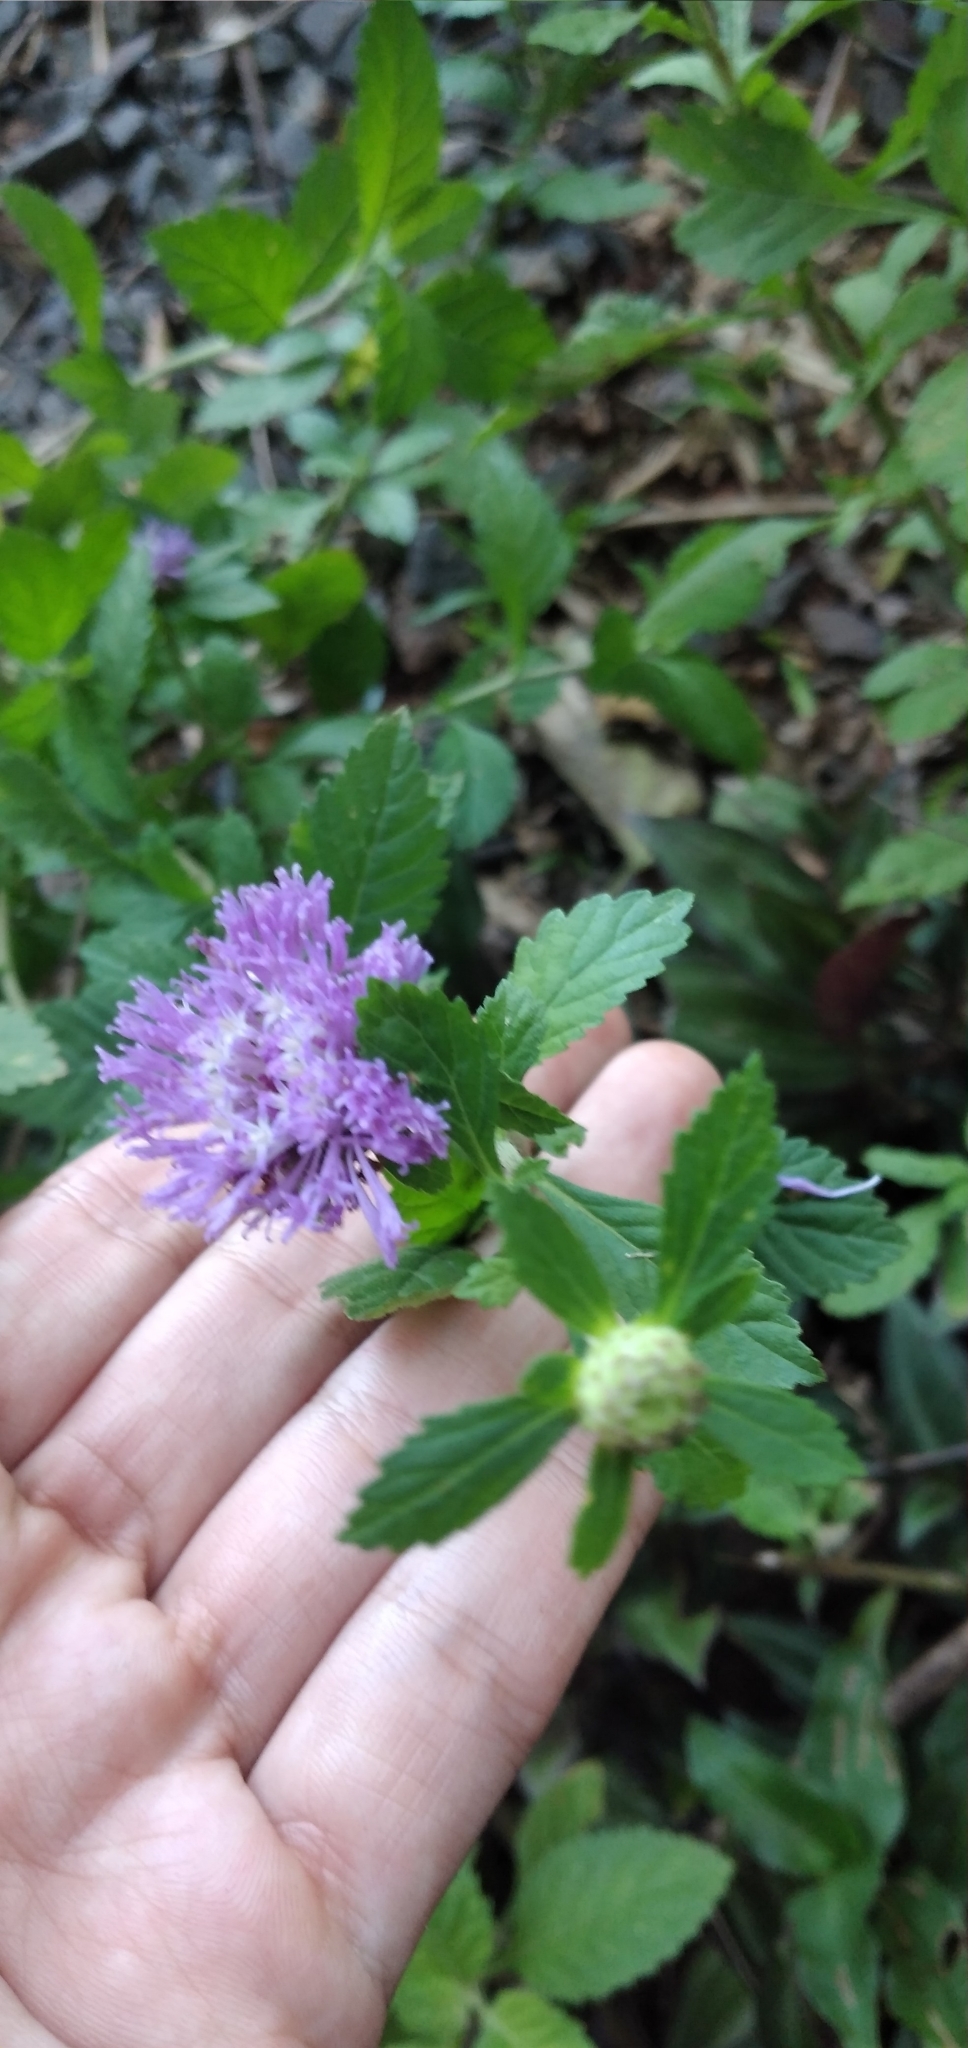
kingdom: Plantae
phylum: Tracheophyta
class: Magnoliopsida
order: Asterales
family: Asteraceae
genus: Centratherum
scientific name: Centratherum punctatum
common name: Larkdaisy
